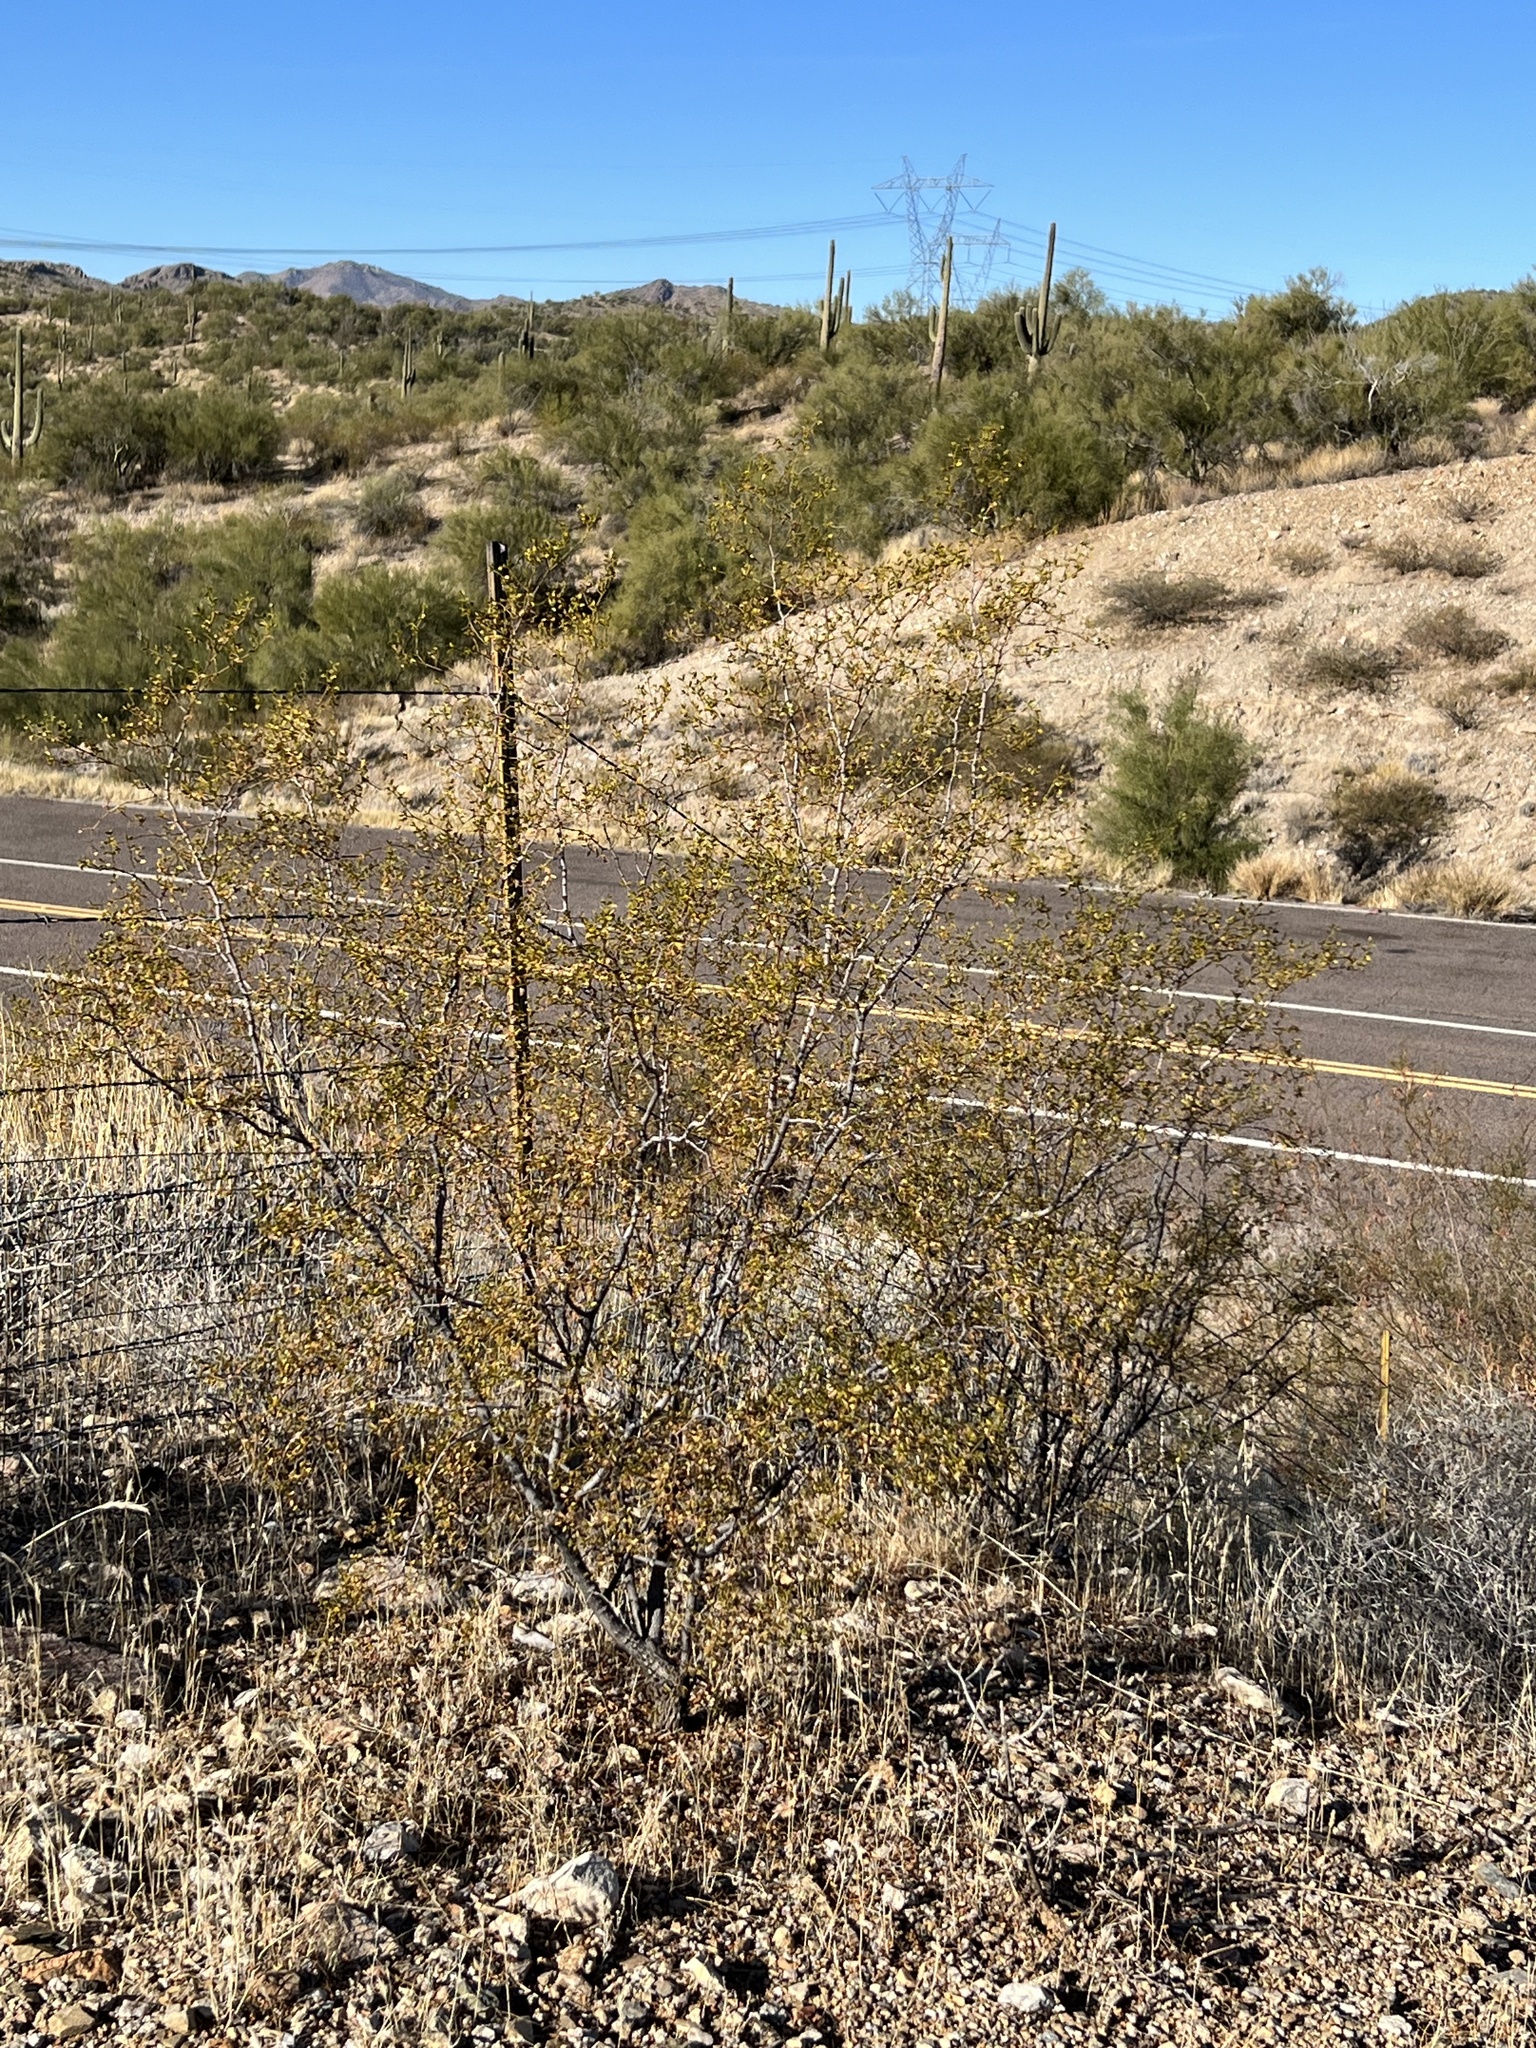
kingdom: Plantae
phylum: Tracheophyta
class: Magnoliopsida
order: Zygophyllales
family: Zygophyllaceae
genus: Larrea
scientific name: Larrea tridentata
